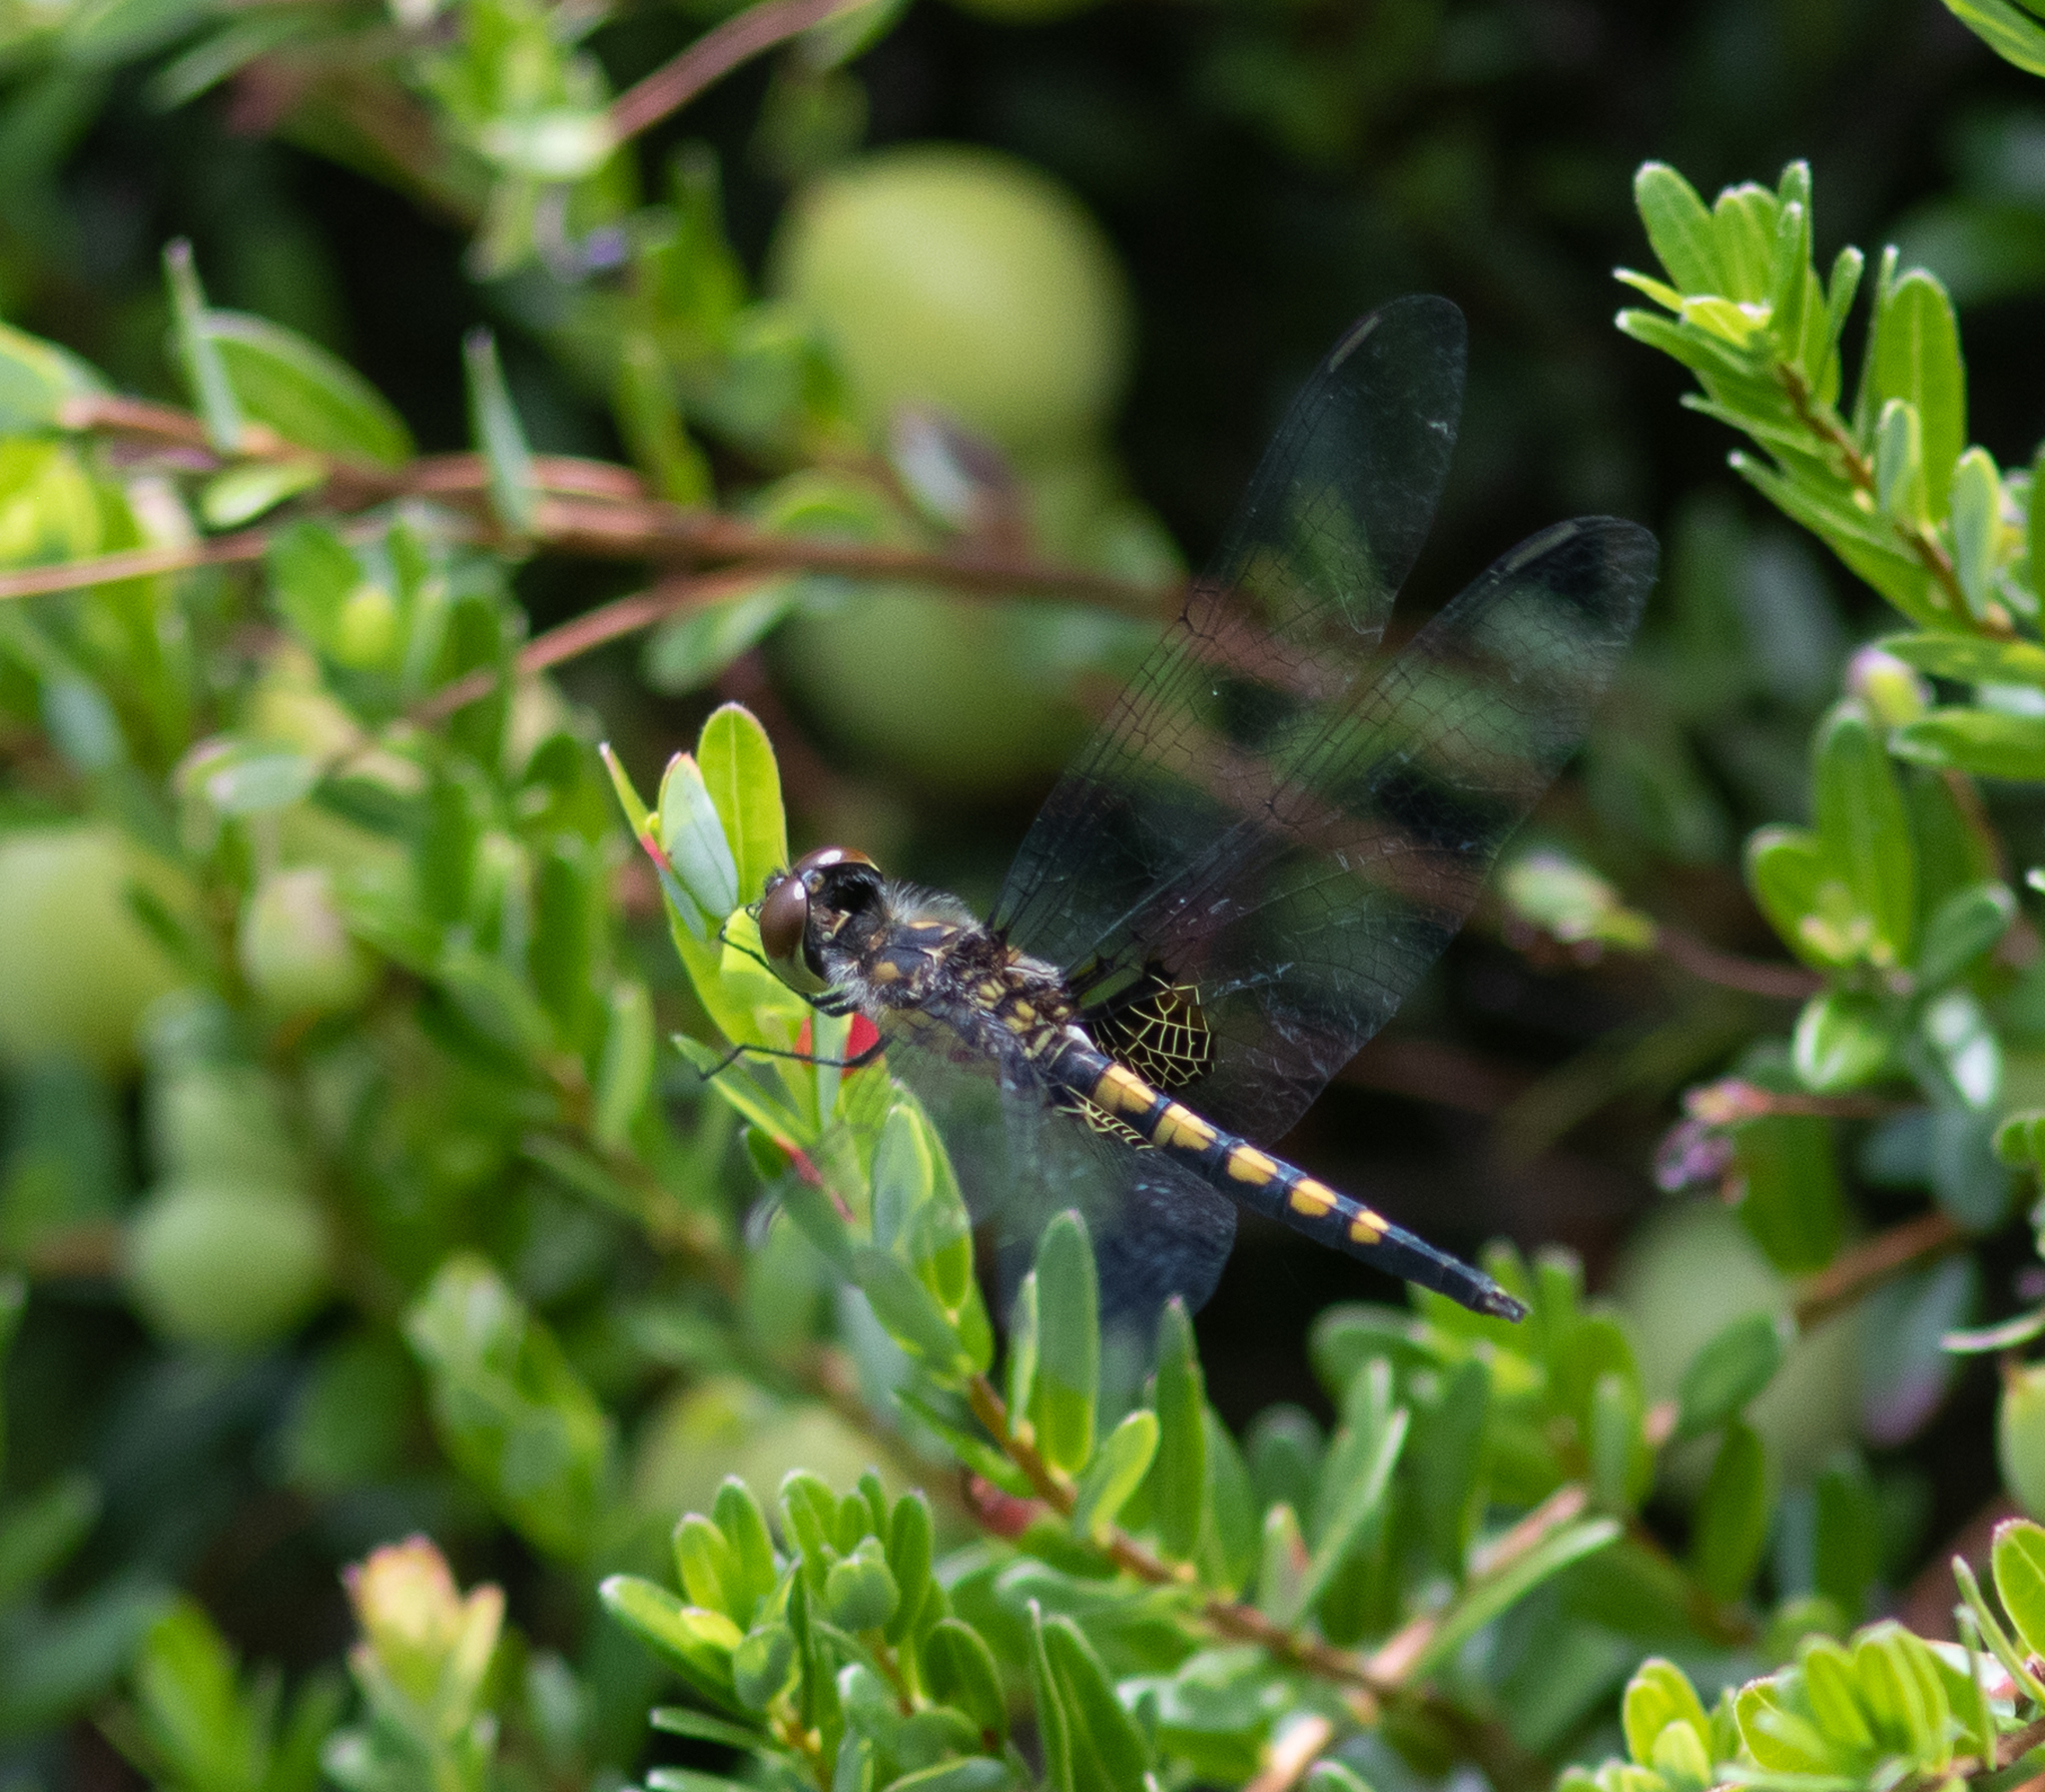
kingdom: Animalia
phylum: Arthropoda
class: Insecta
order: Odonata
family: Libellulidae
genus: Celithemis
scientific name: Celithemis martha
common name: Martha's pennant
